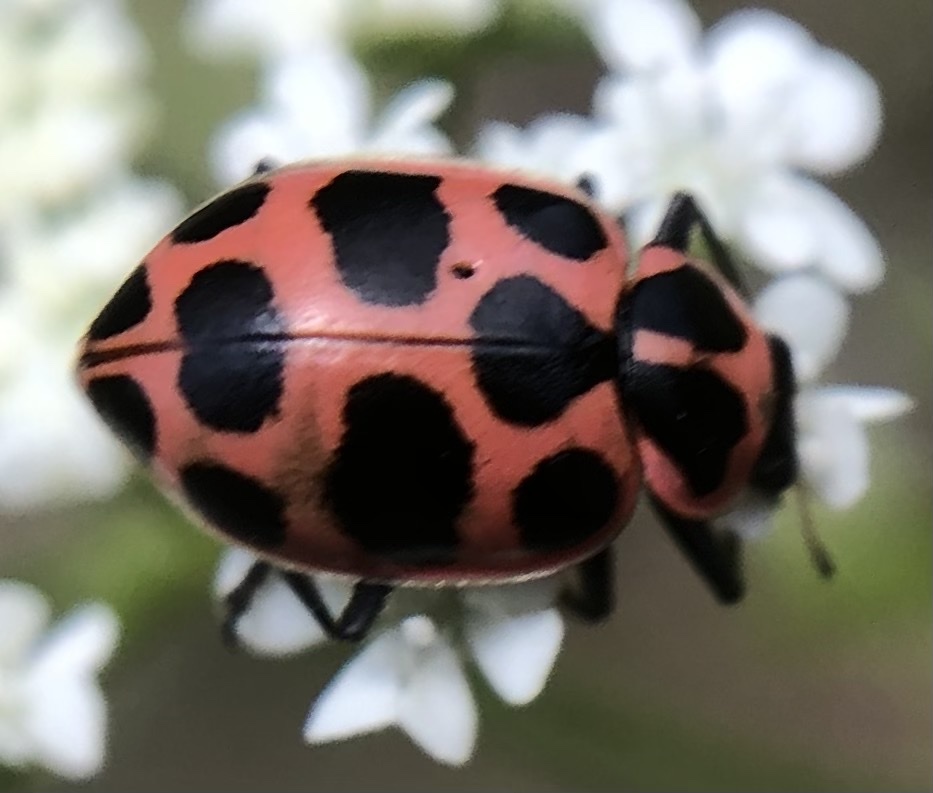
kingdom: Animalia
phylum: Arthropoda
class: Insecta
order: Coleoptera
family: Coccinellidae
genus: Coleomegilla
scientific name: Coleomegilla maculata
